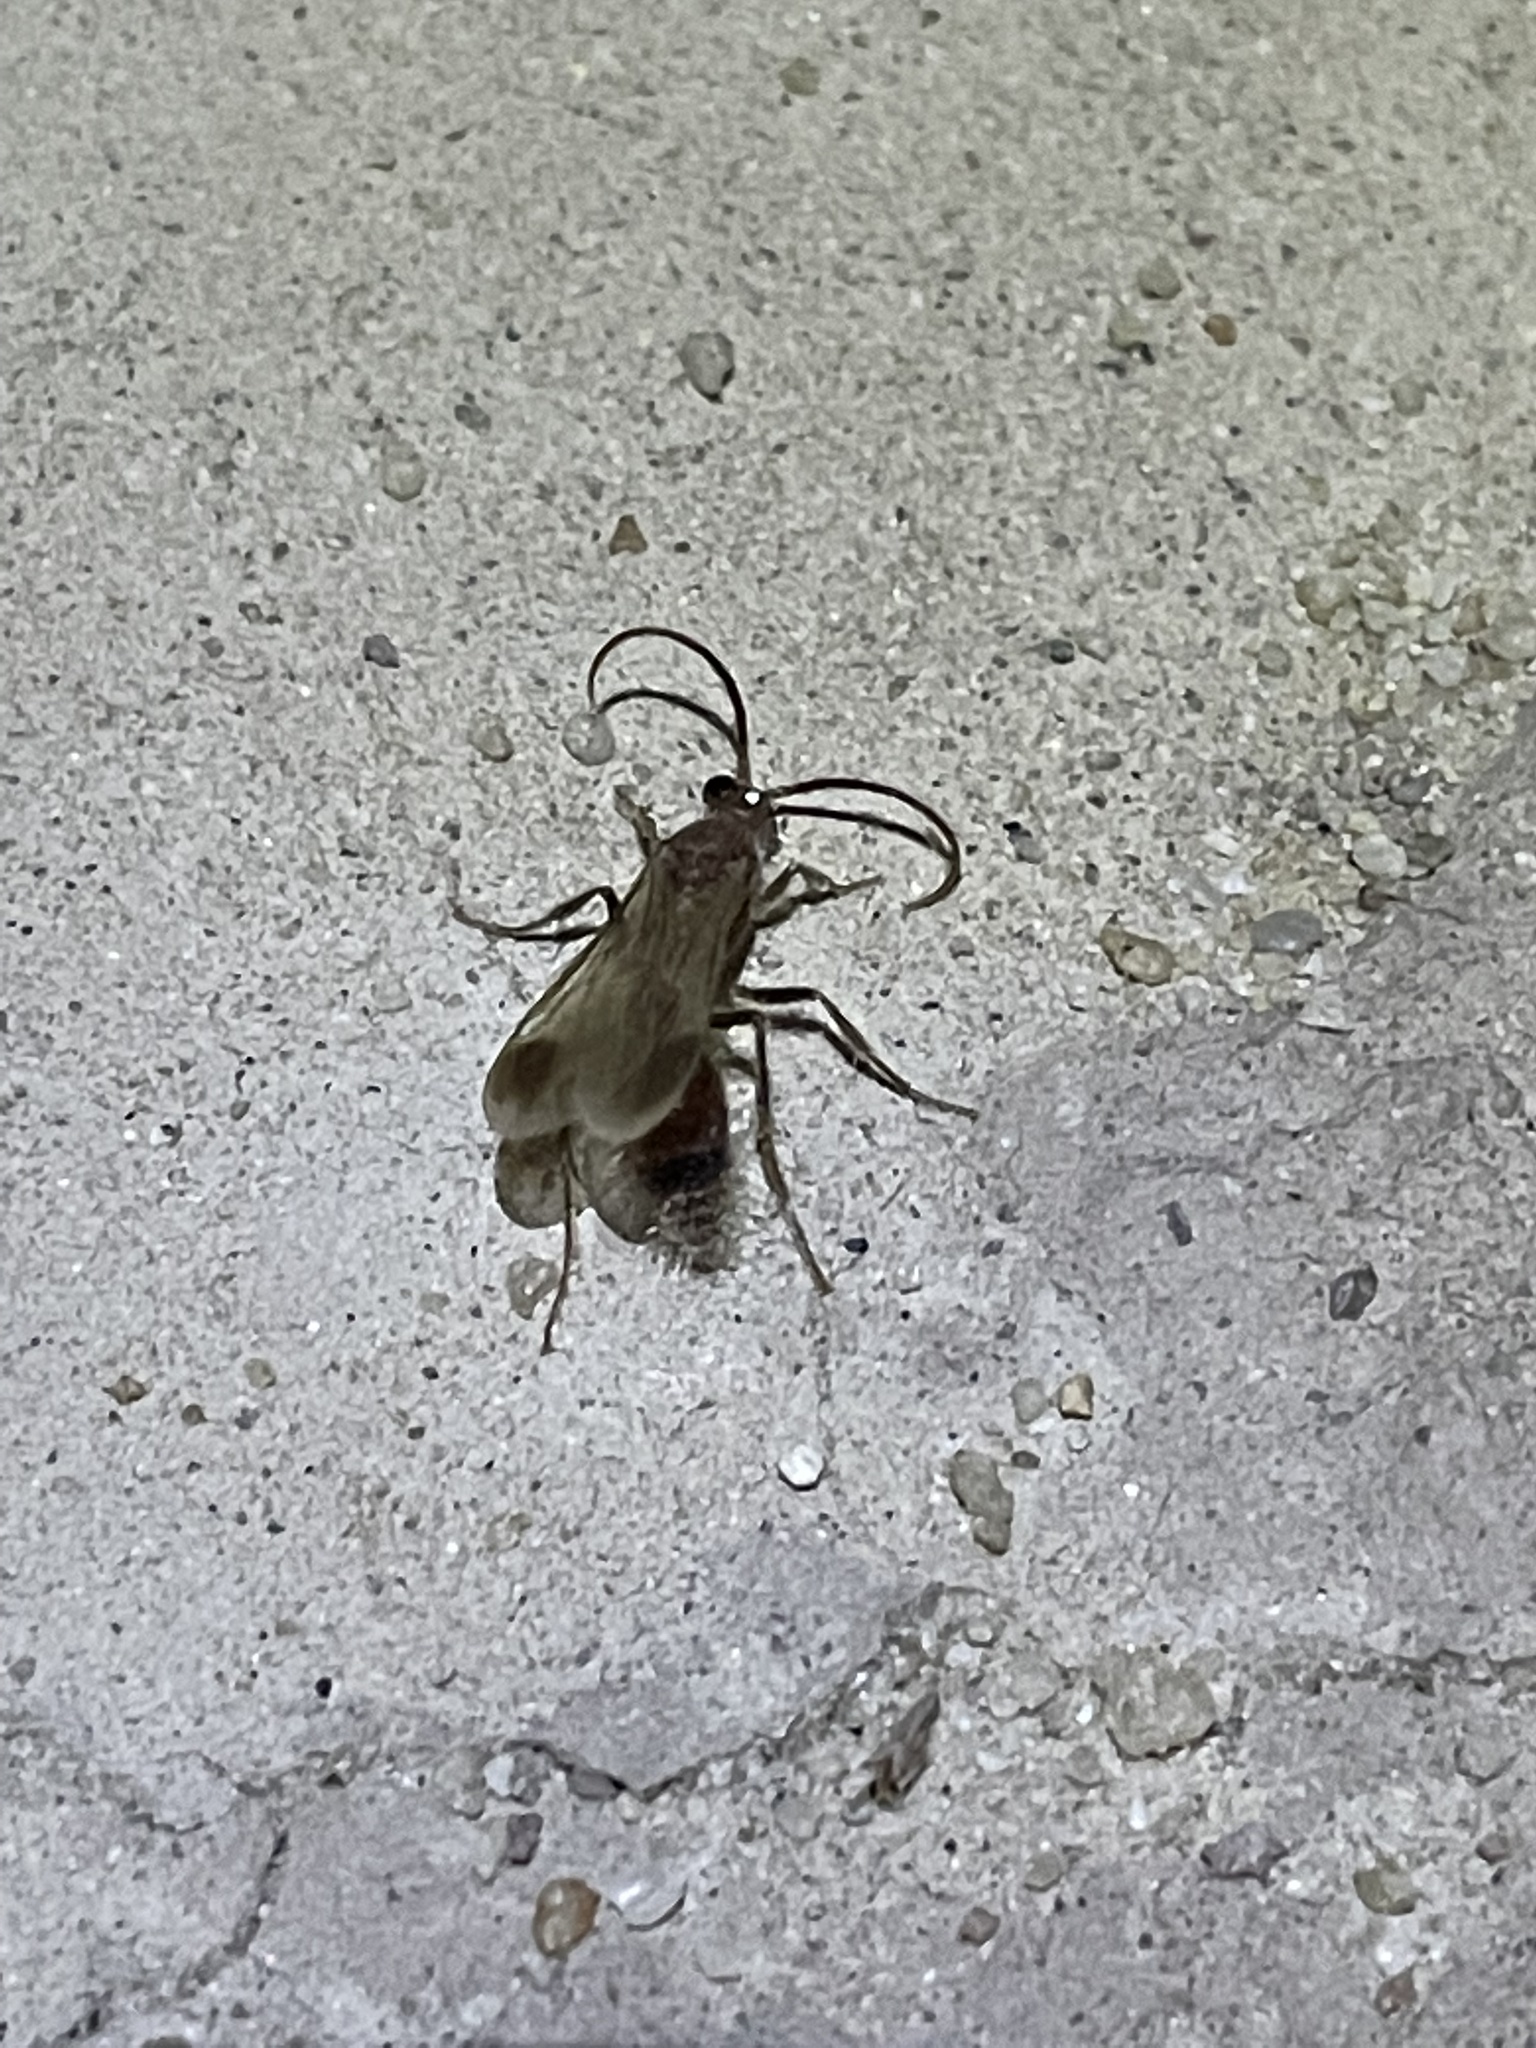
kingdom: Animalia
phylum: Arthropoda
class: Insecta
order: Hymenoptera
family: Chyphotidae
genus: Chyphotes
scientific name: Chyphotes
